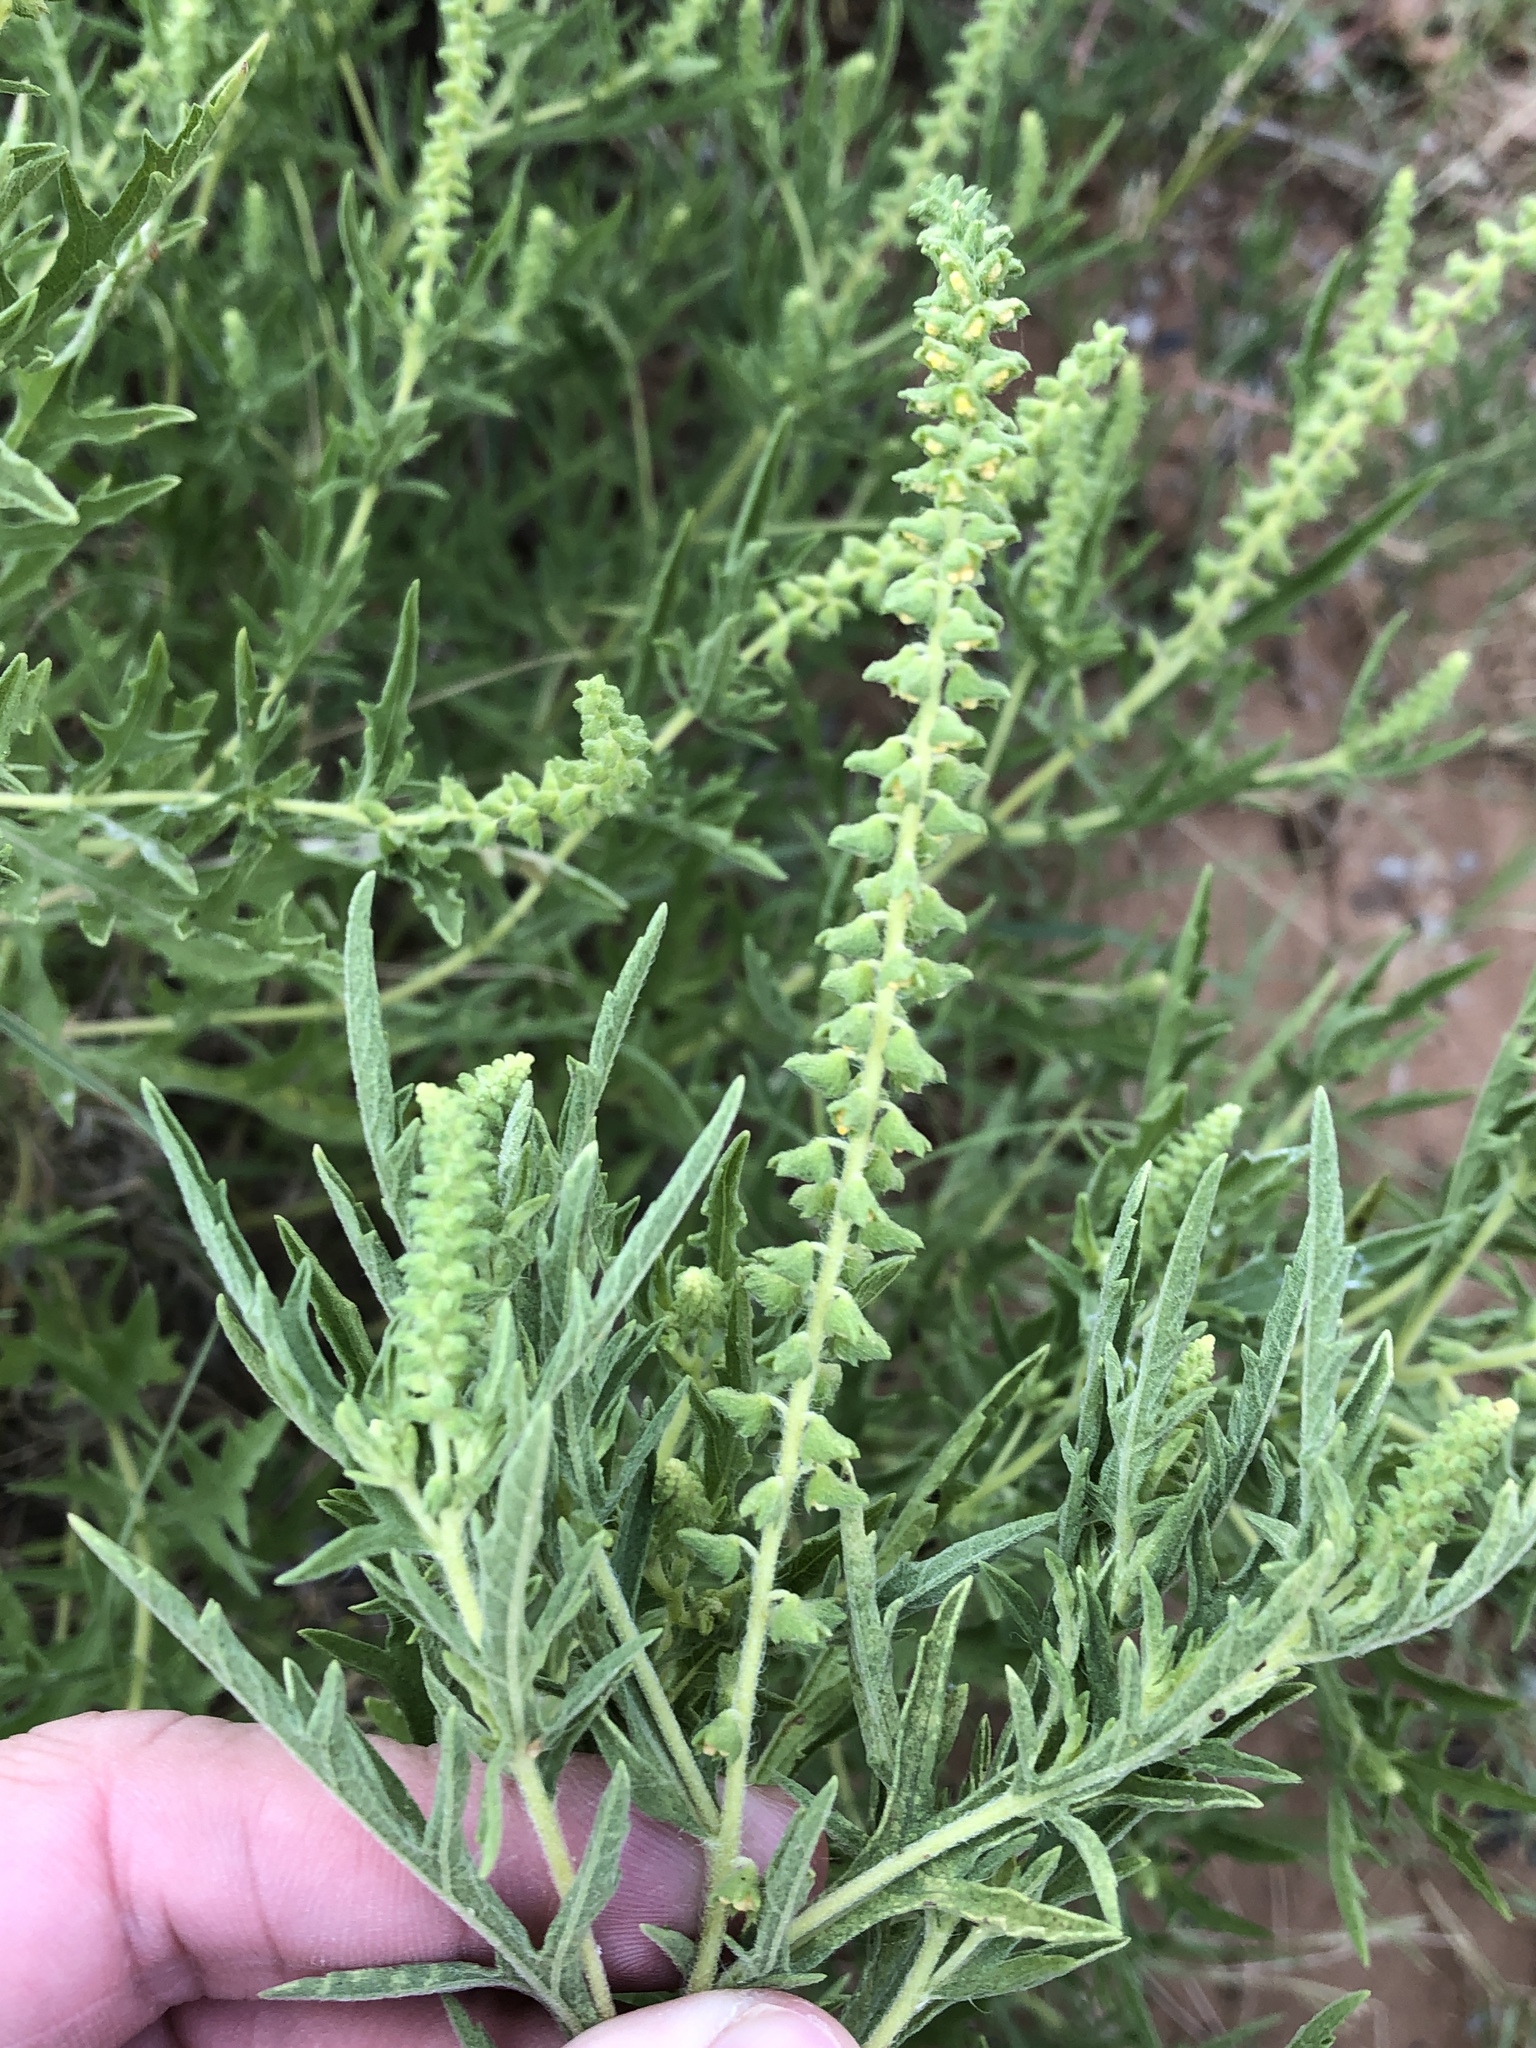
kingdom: Plantae
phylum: Tracheophyta
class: Magnoliopsida
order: Asterales
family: Asteraceae
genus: Ambrosia
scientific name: Ambrosia psilostachya
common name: Perennial ragweed
